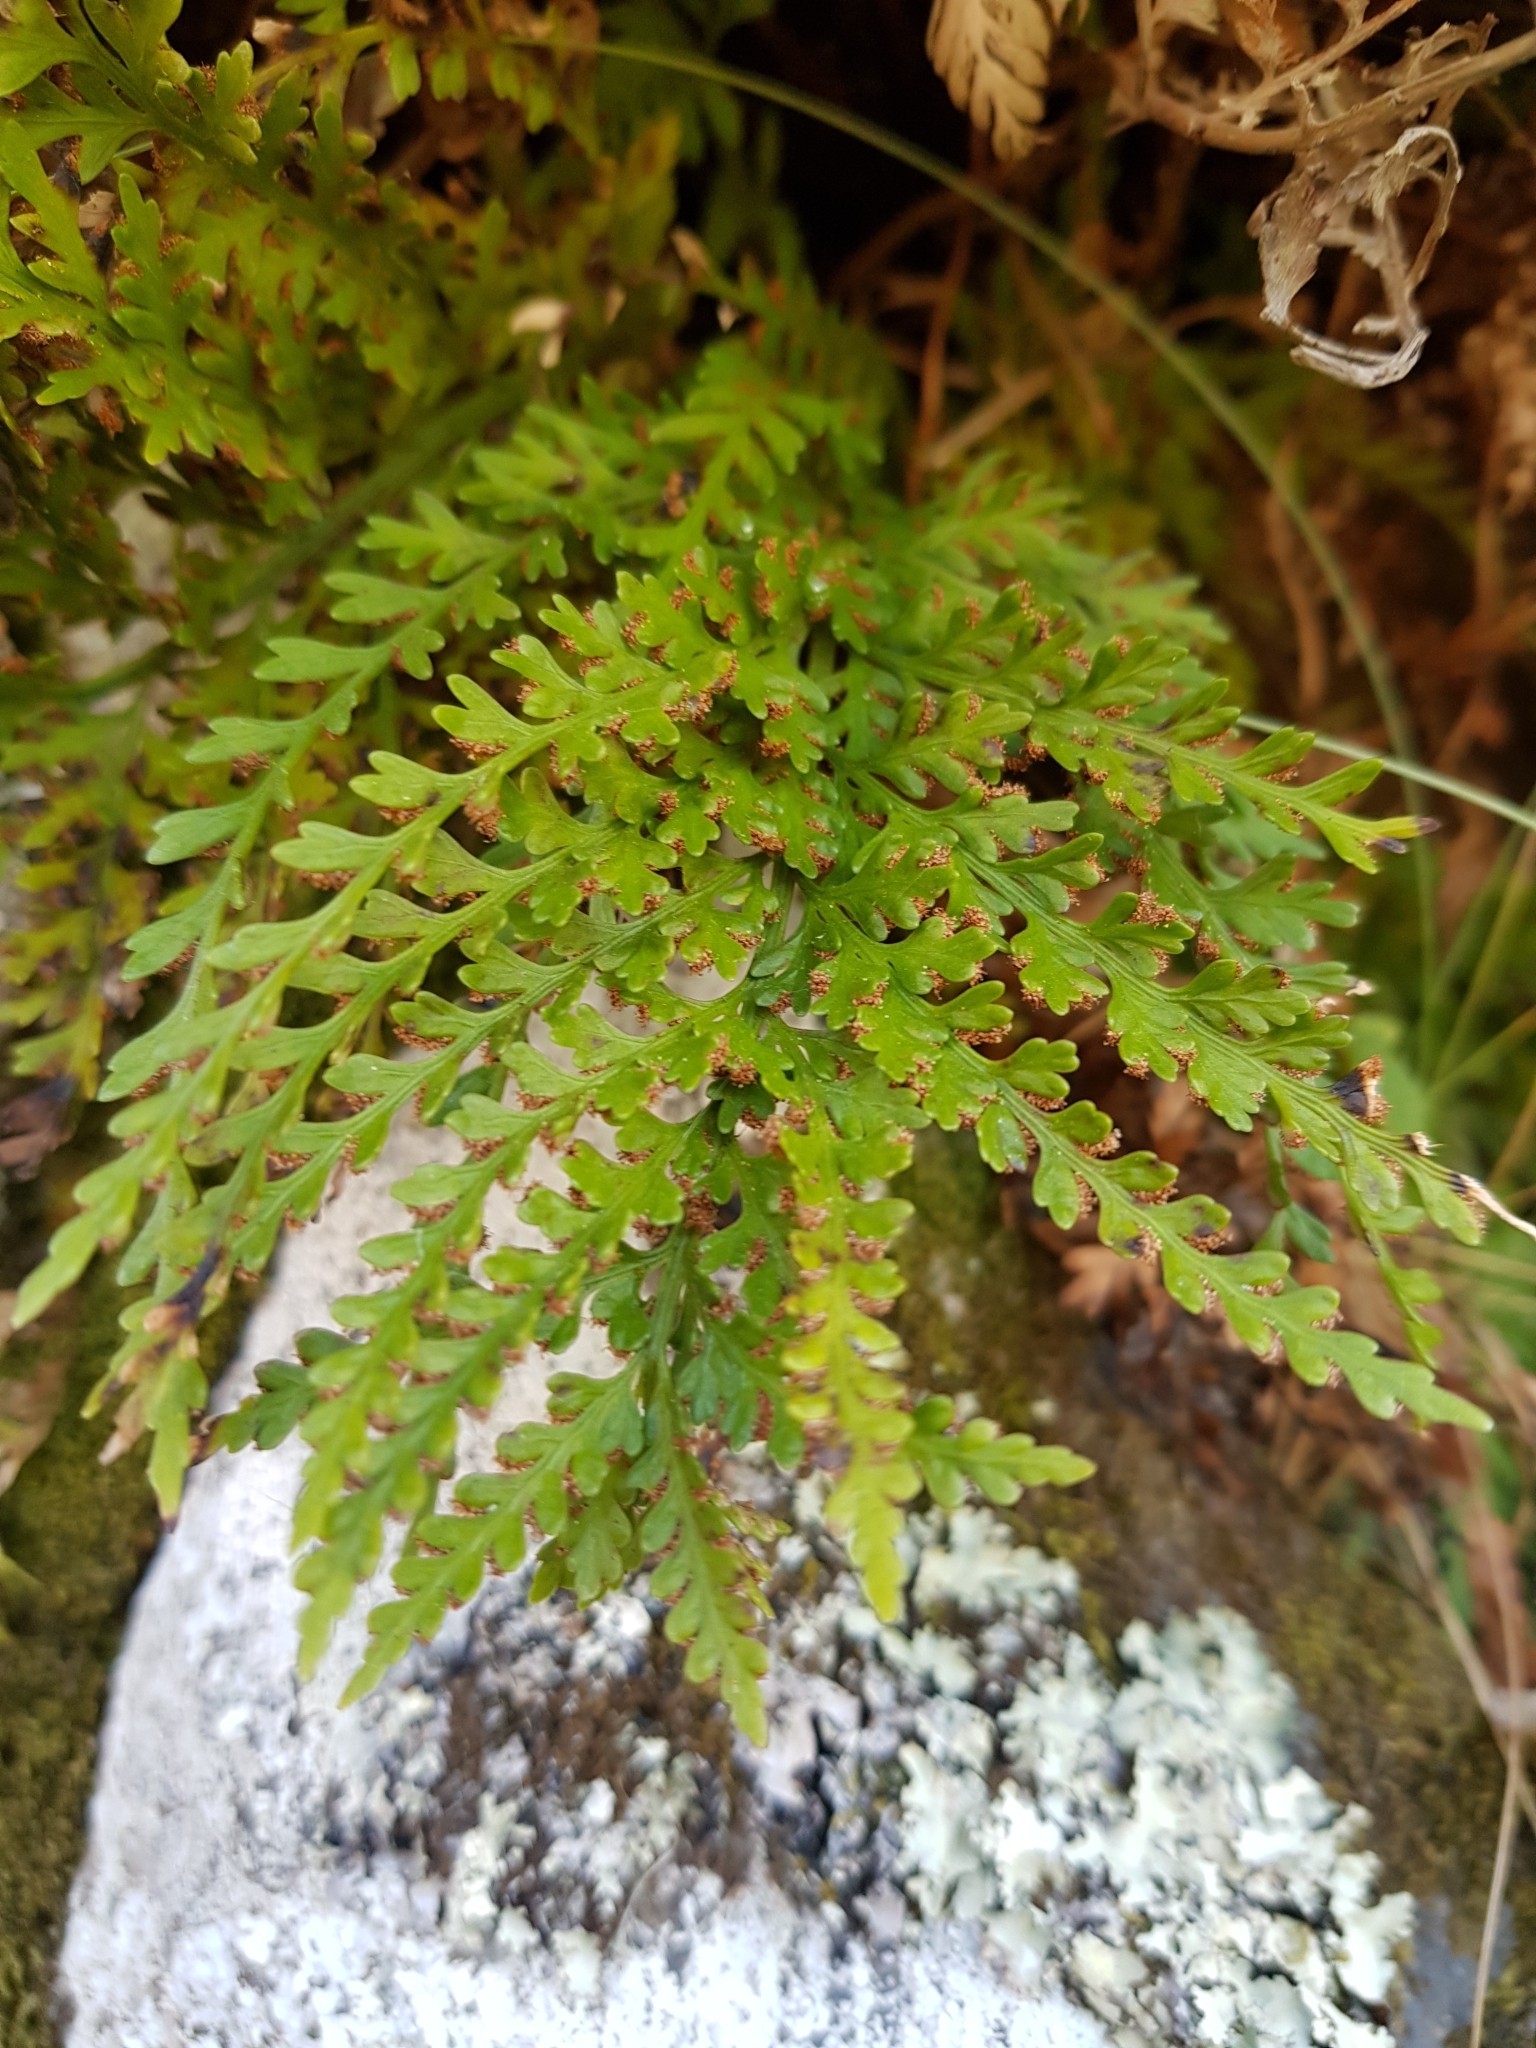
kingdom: Plantae
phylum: Tracheophyta
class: Polypodiopsida
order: Polypodiales
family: Aspleniaceae
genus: Asplenium
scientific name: Asplenium appendiculatum
